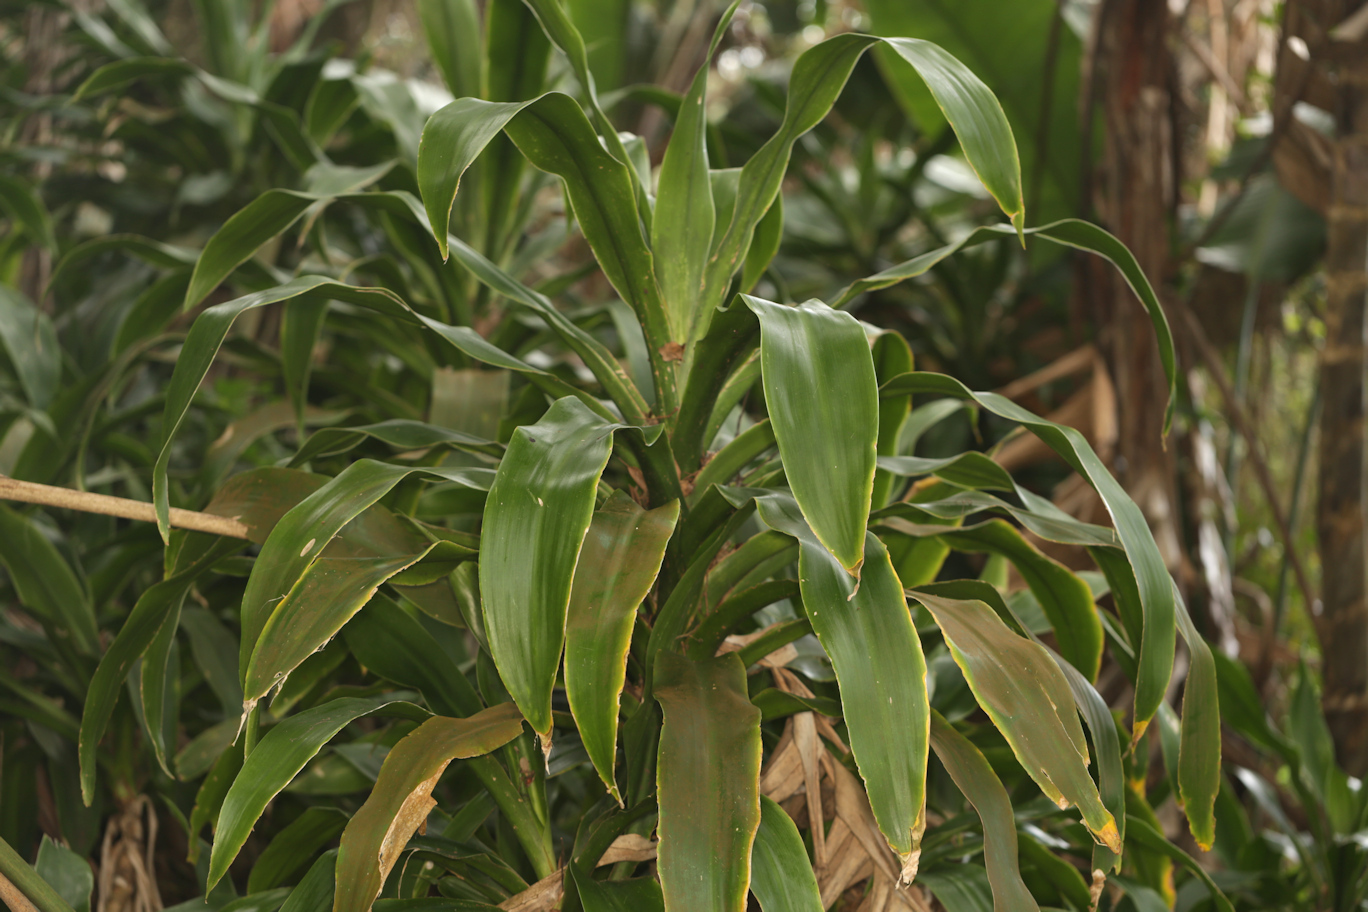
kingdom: Plantae
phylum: Tracheophyta
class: Liliopsida
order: Asparagales
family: Asparagaceae
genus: Dracaena
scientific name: Dracaena aletriformis
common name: Large-leaved dragon tree
